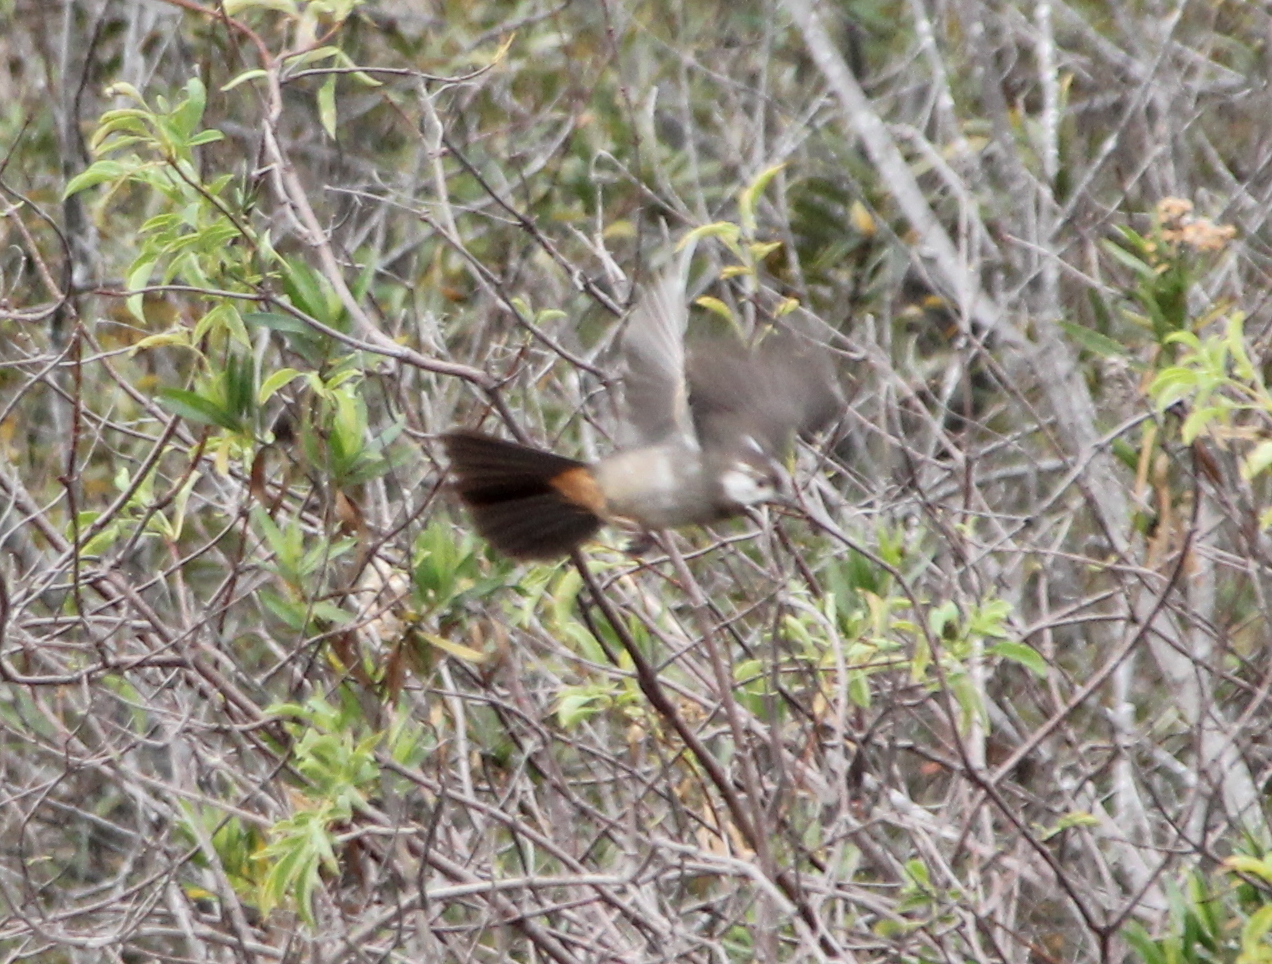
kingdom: Animalia
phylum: Chordata
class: Aves
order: Passeriformes
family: Passerellidae
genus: Melozone
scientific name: Melozone crissalis
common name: California towhee
